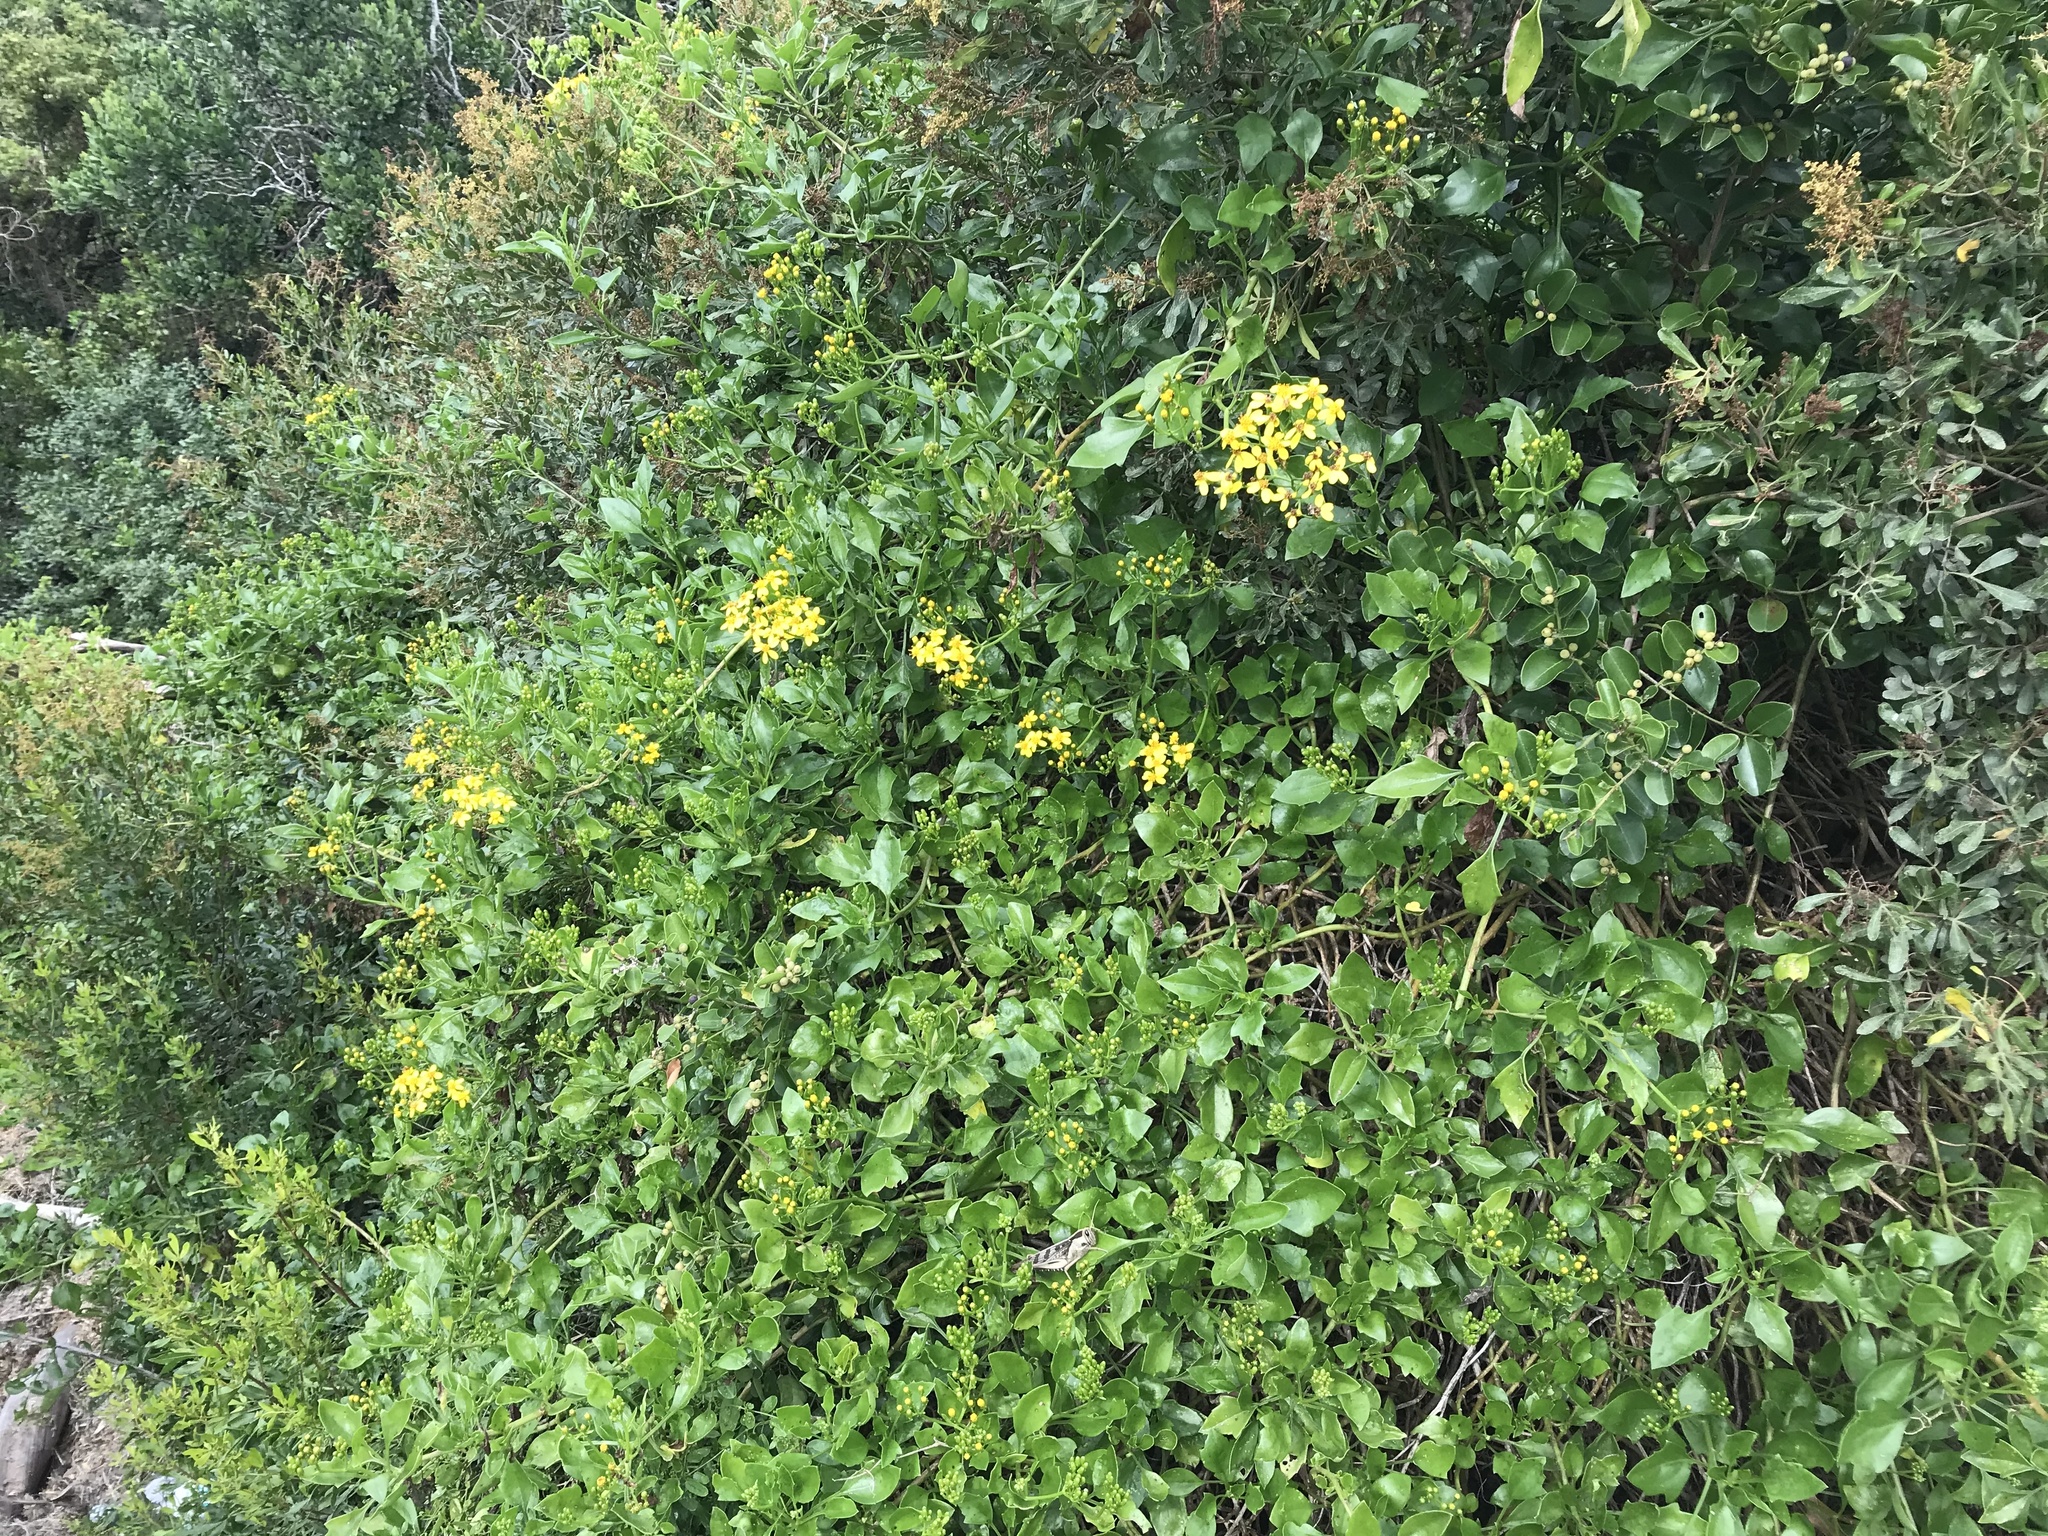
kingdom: Plantae
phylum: Tracheophyta
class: Magnoliopsida
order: Asterales
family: Asteraceae
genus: Senecio
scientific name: Senecio angulatus
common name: Climbing groundsel
